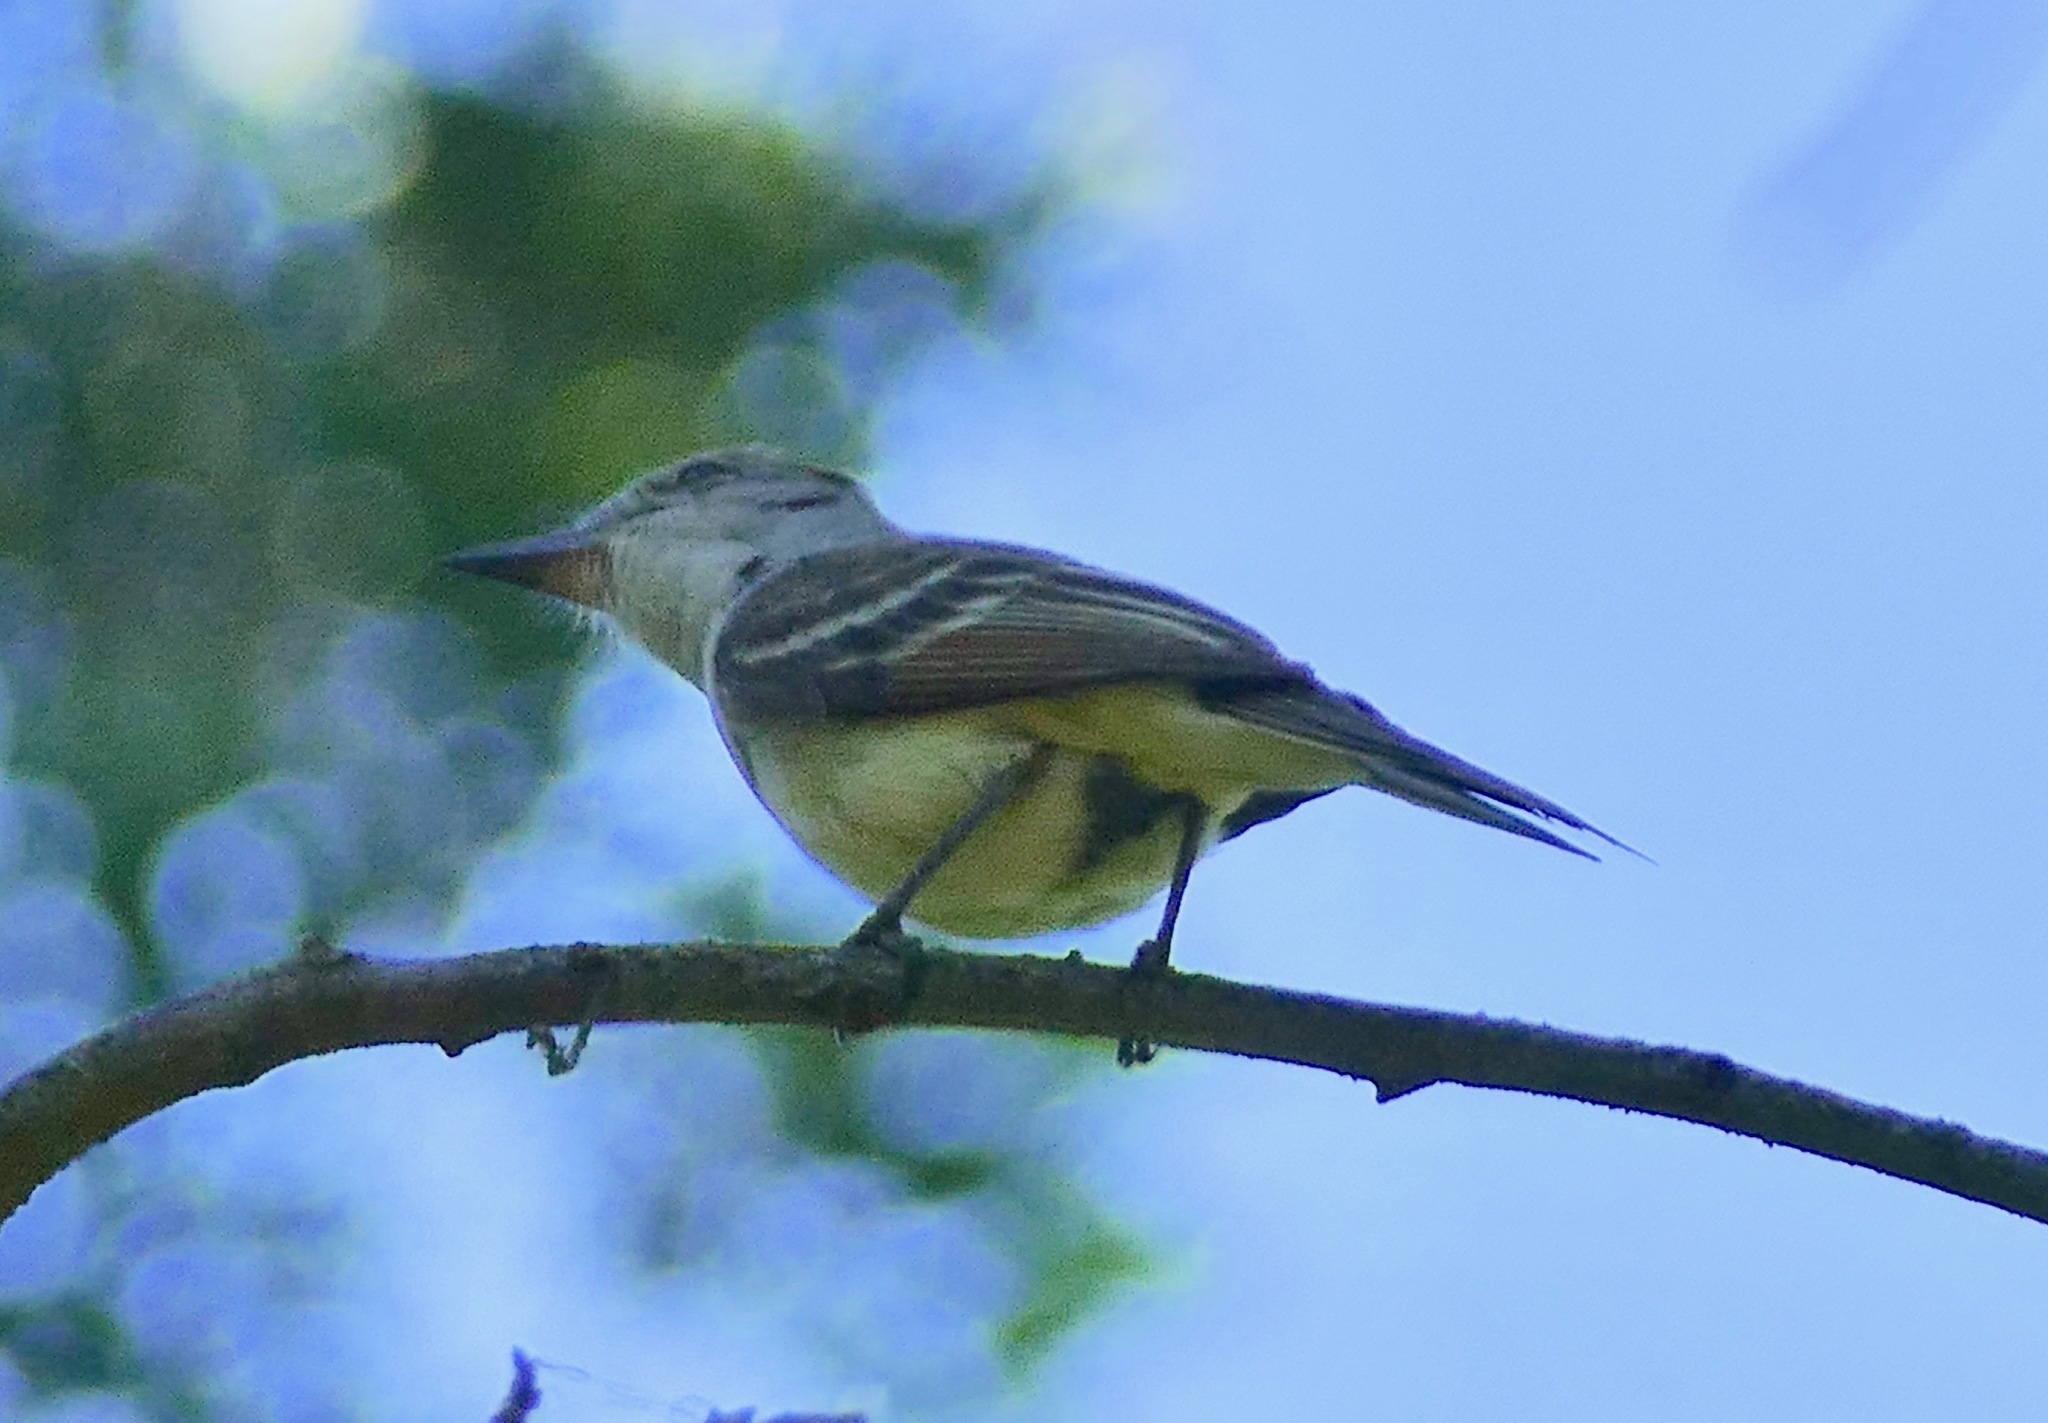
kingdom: Animalia
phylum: Chordata
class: Aves
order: Passeriformes
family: Tyrannidae
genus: Myiarchus
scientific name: Myiarchus cinerascens
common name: Ash-throated flycatcher
